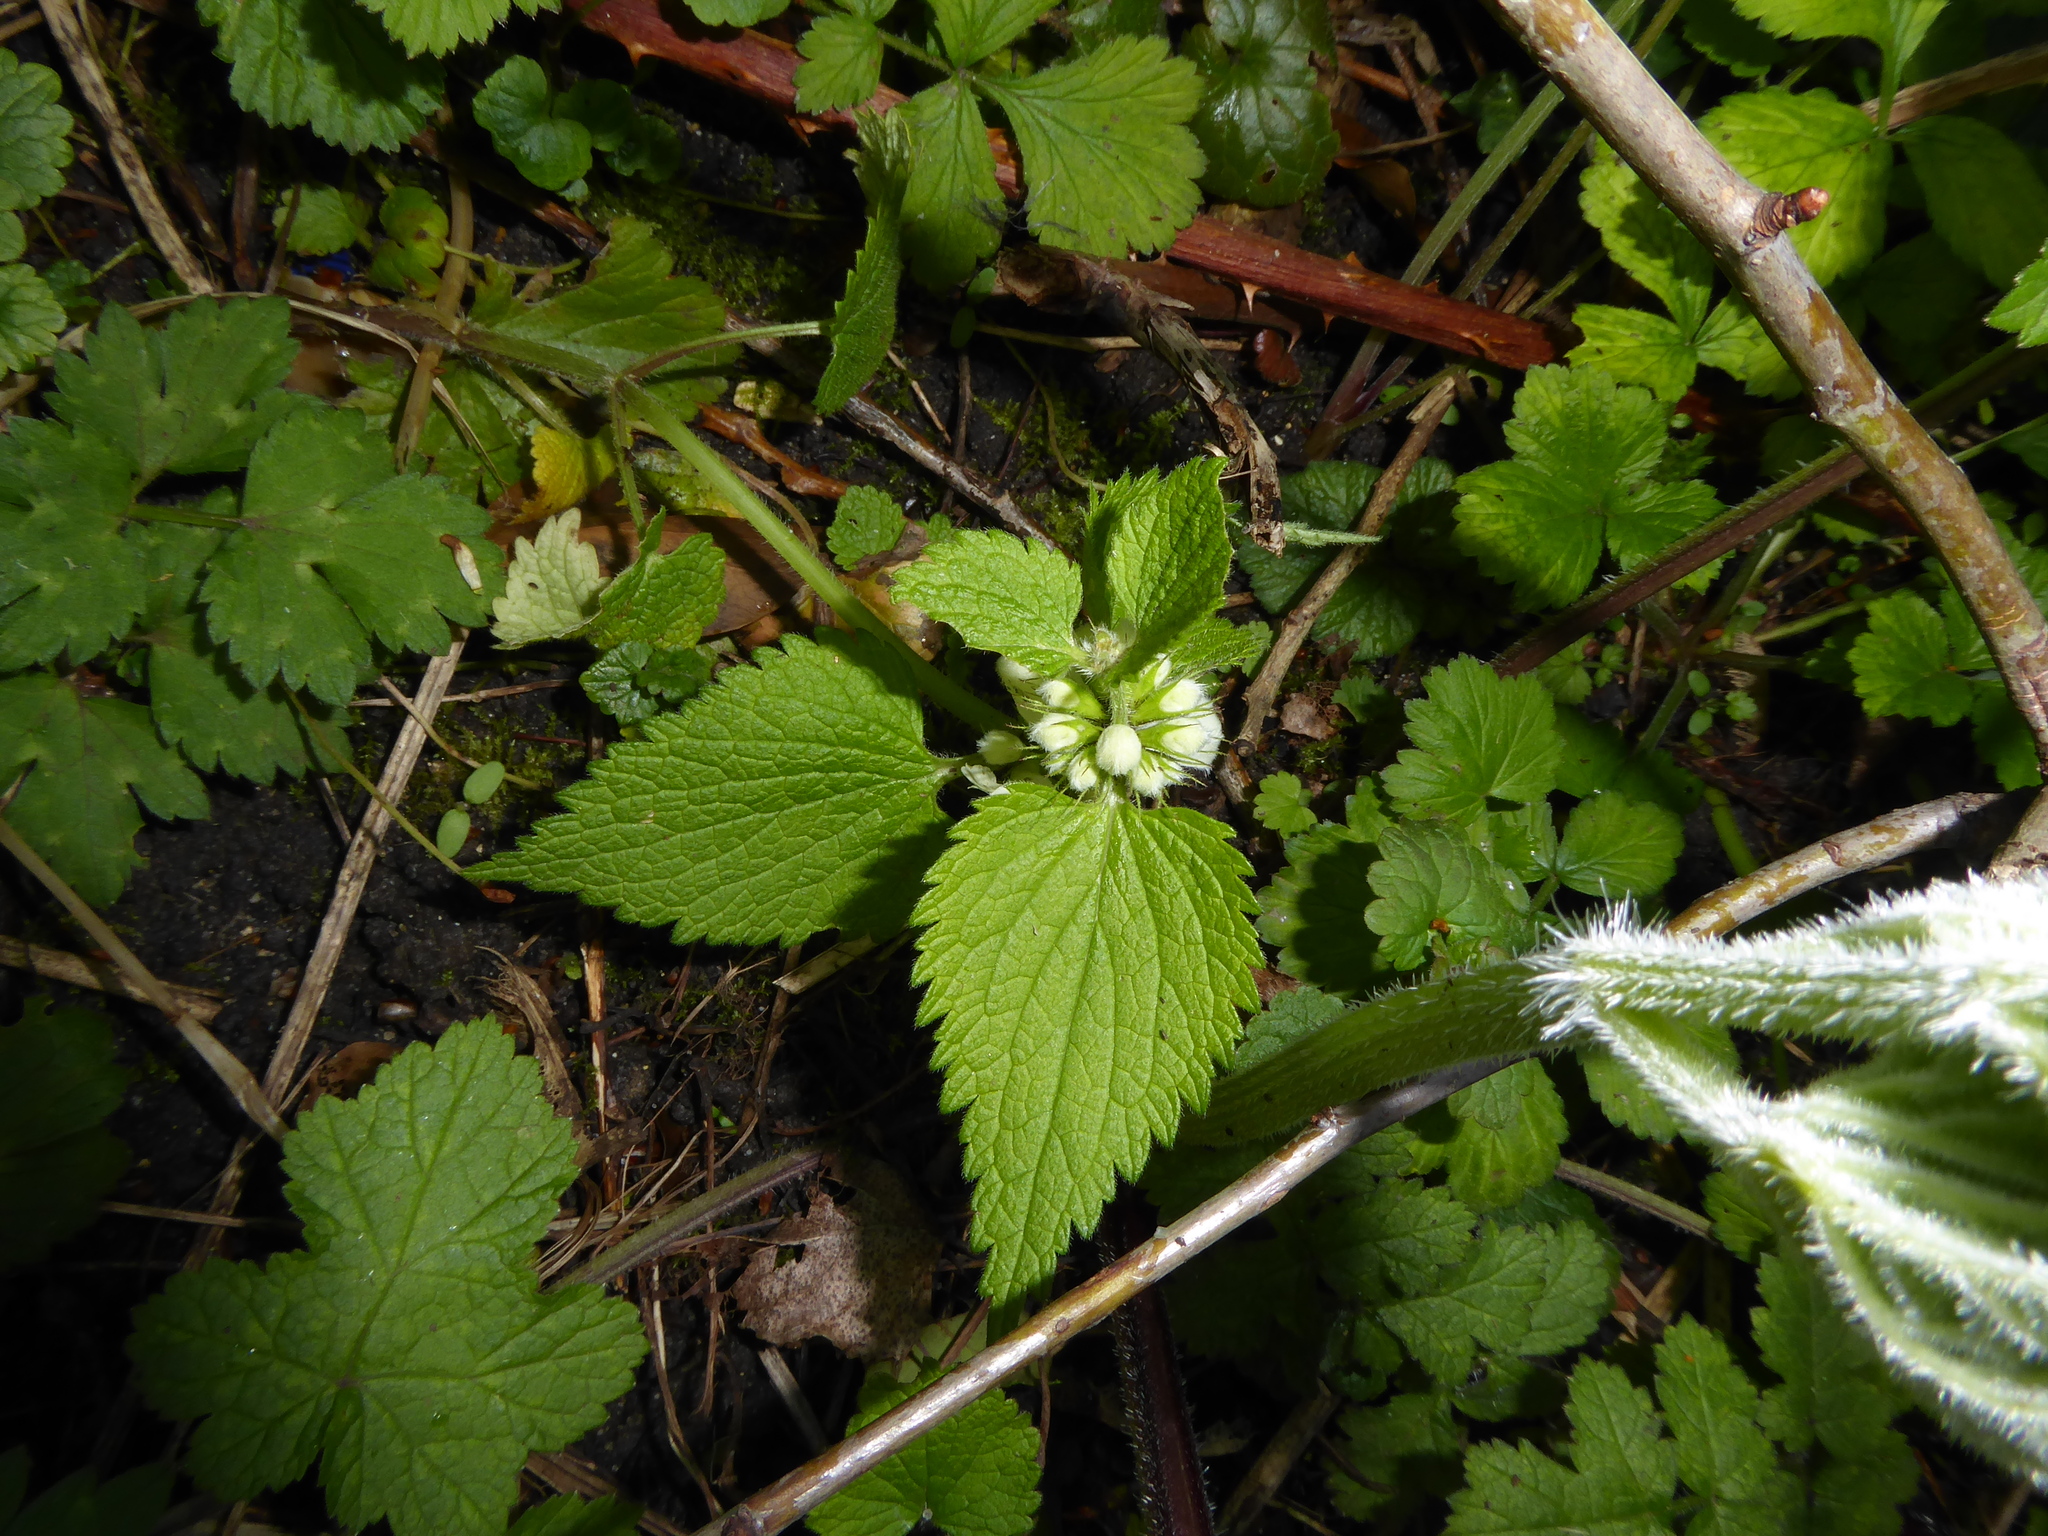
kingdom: Plantae
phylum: Tracheophyta
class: Magnoliopsida
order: Lamiales
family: Lamiaceae
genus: Lamium
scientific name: Lamium album
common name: White dead-nettle
